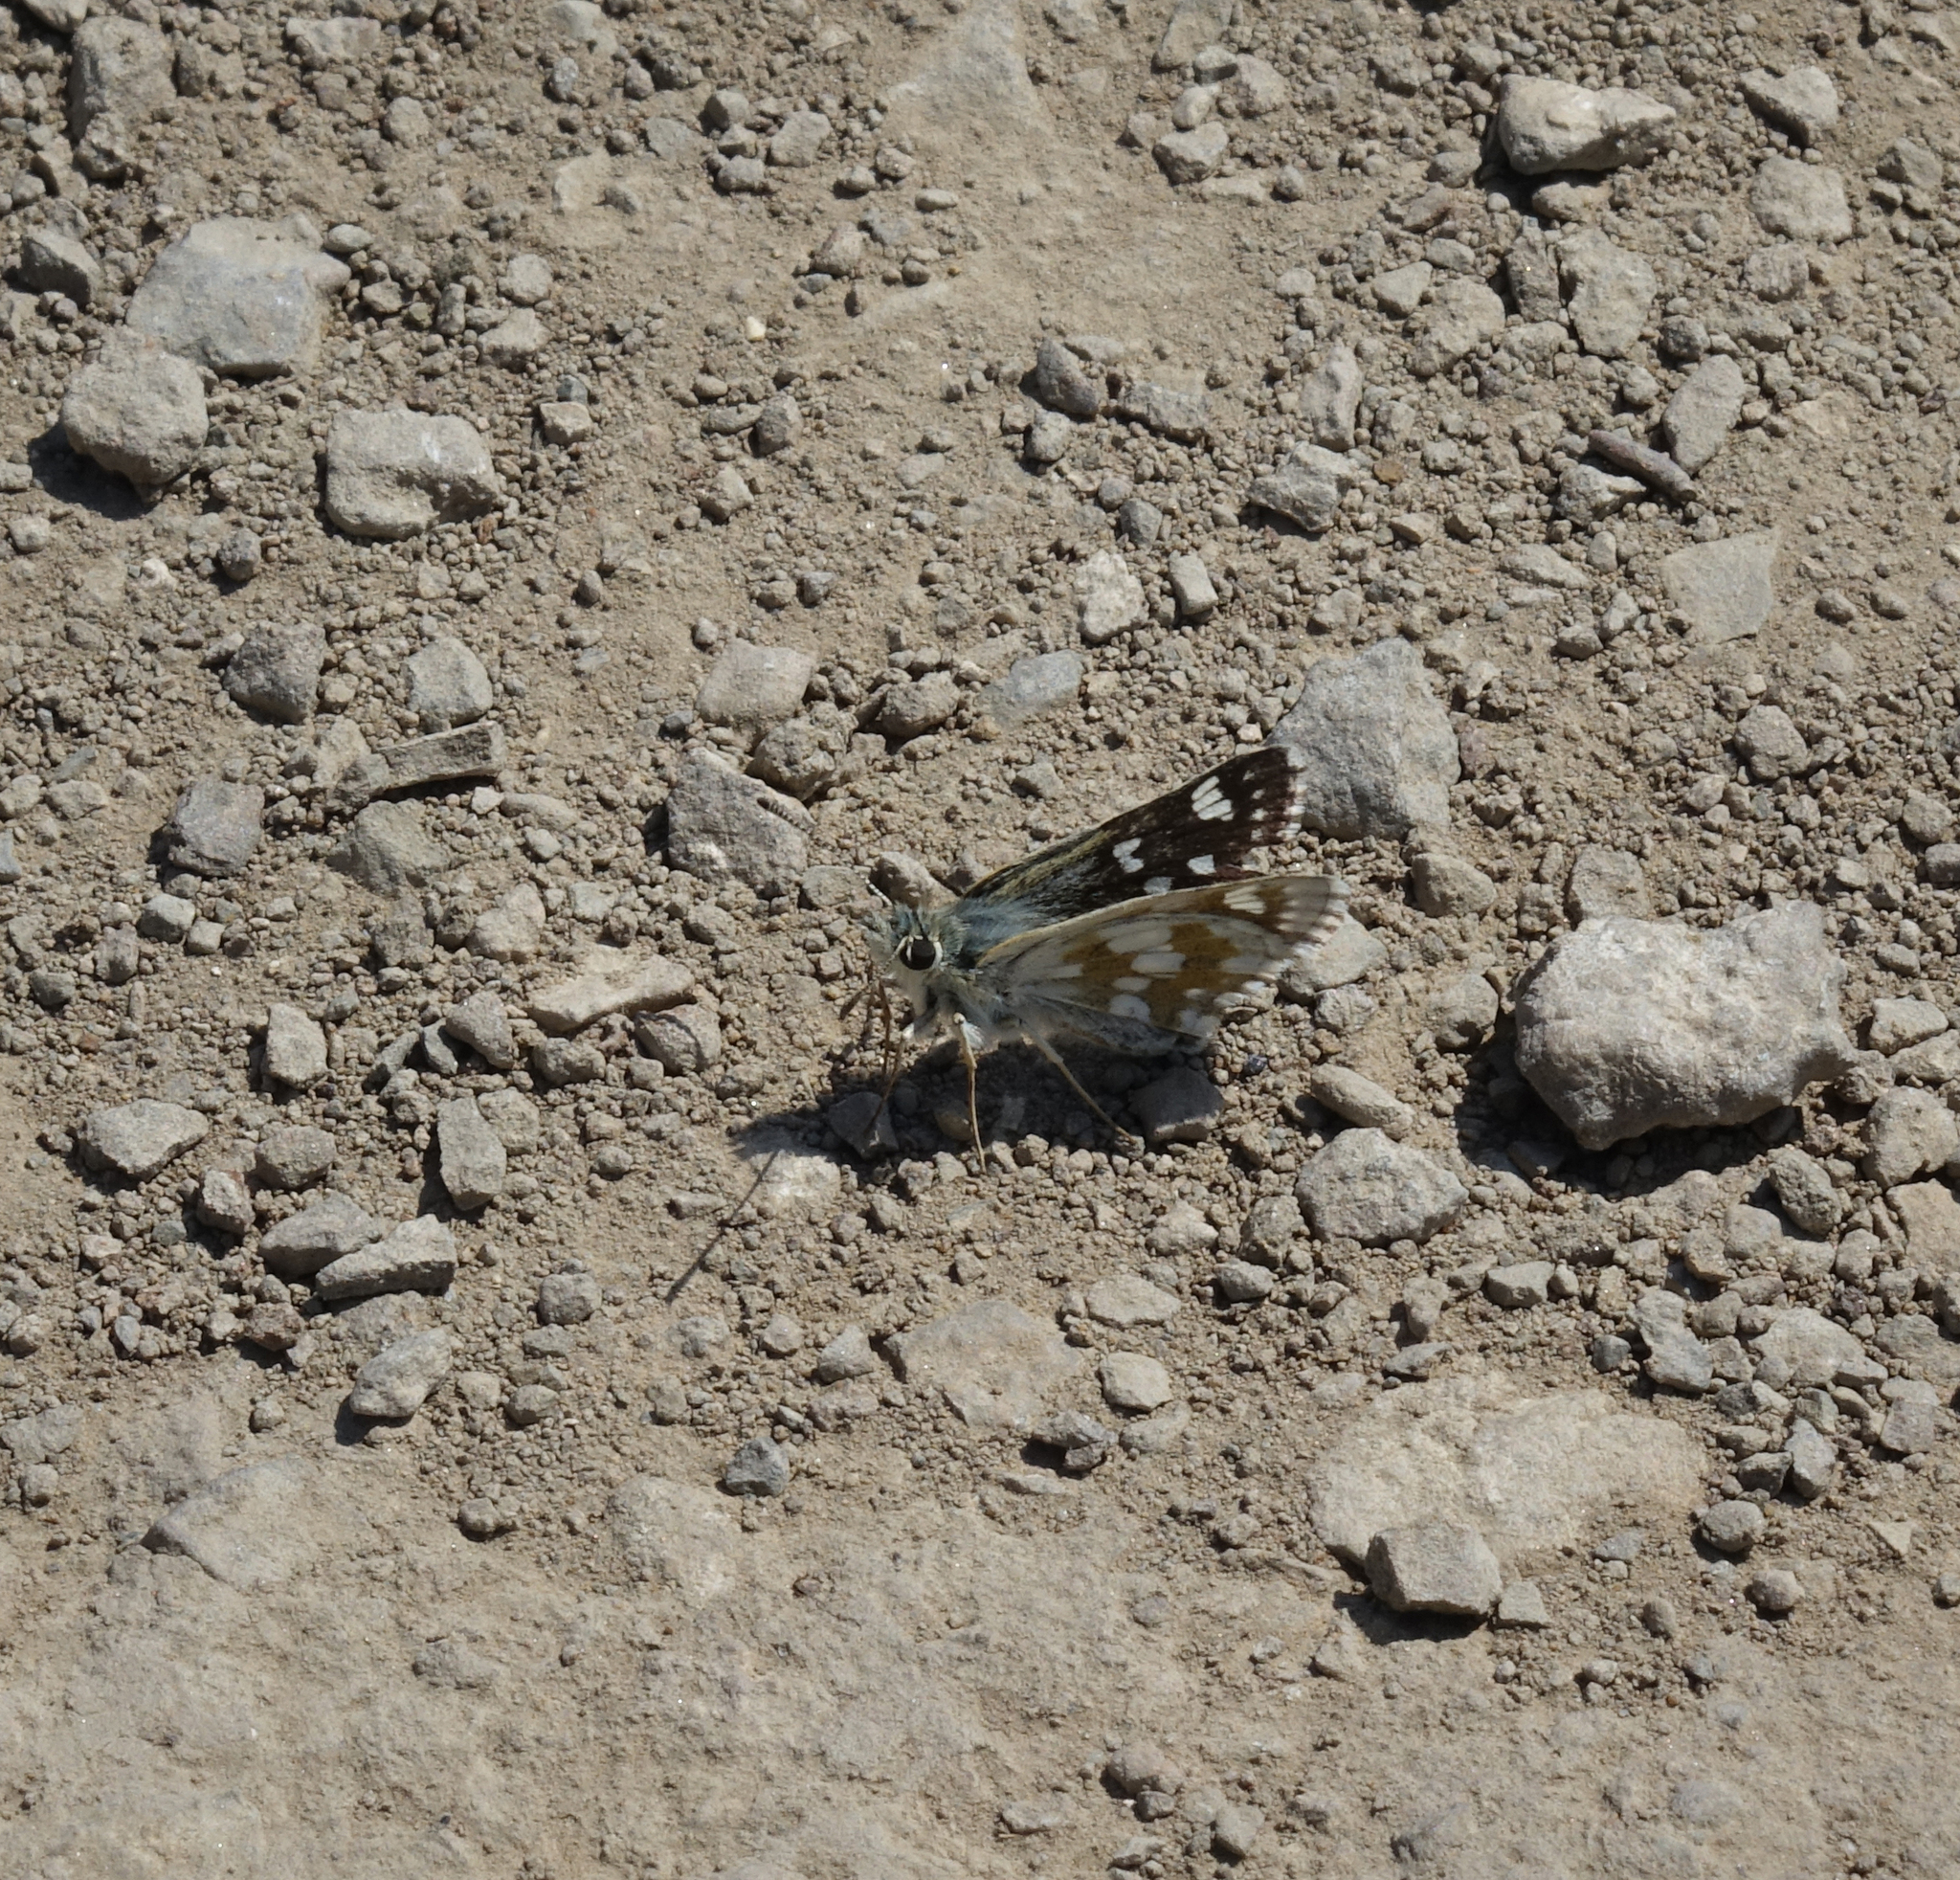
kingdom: Animalia
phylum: Arthropoda
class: Insecta
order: Lepidoptera
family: Hesperiidae
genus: Syrichtus
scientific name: Syrichtus cribrellum
